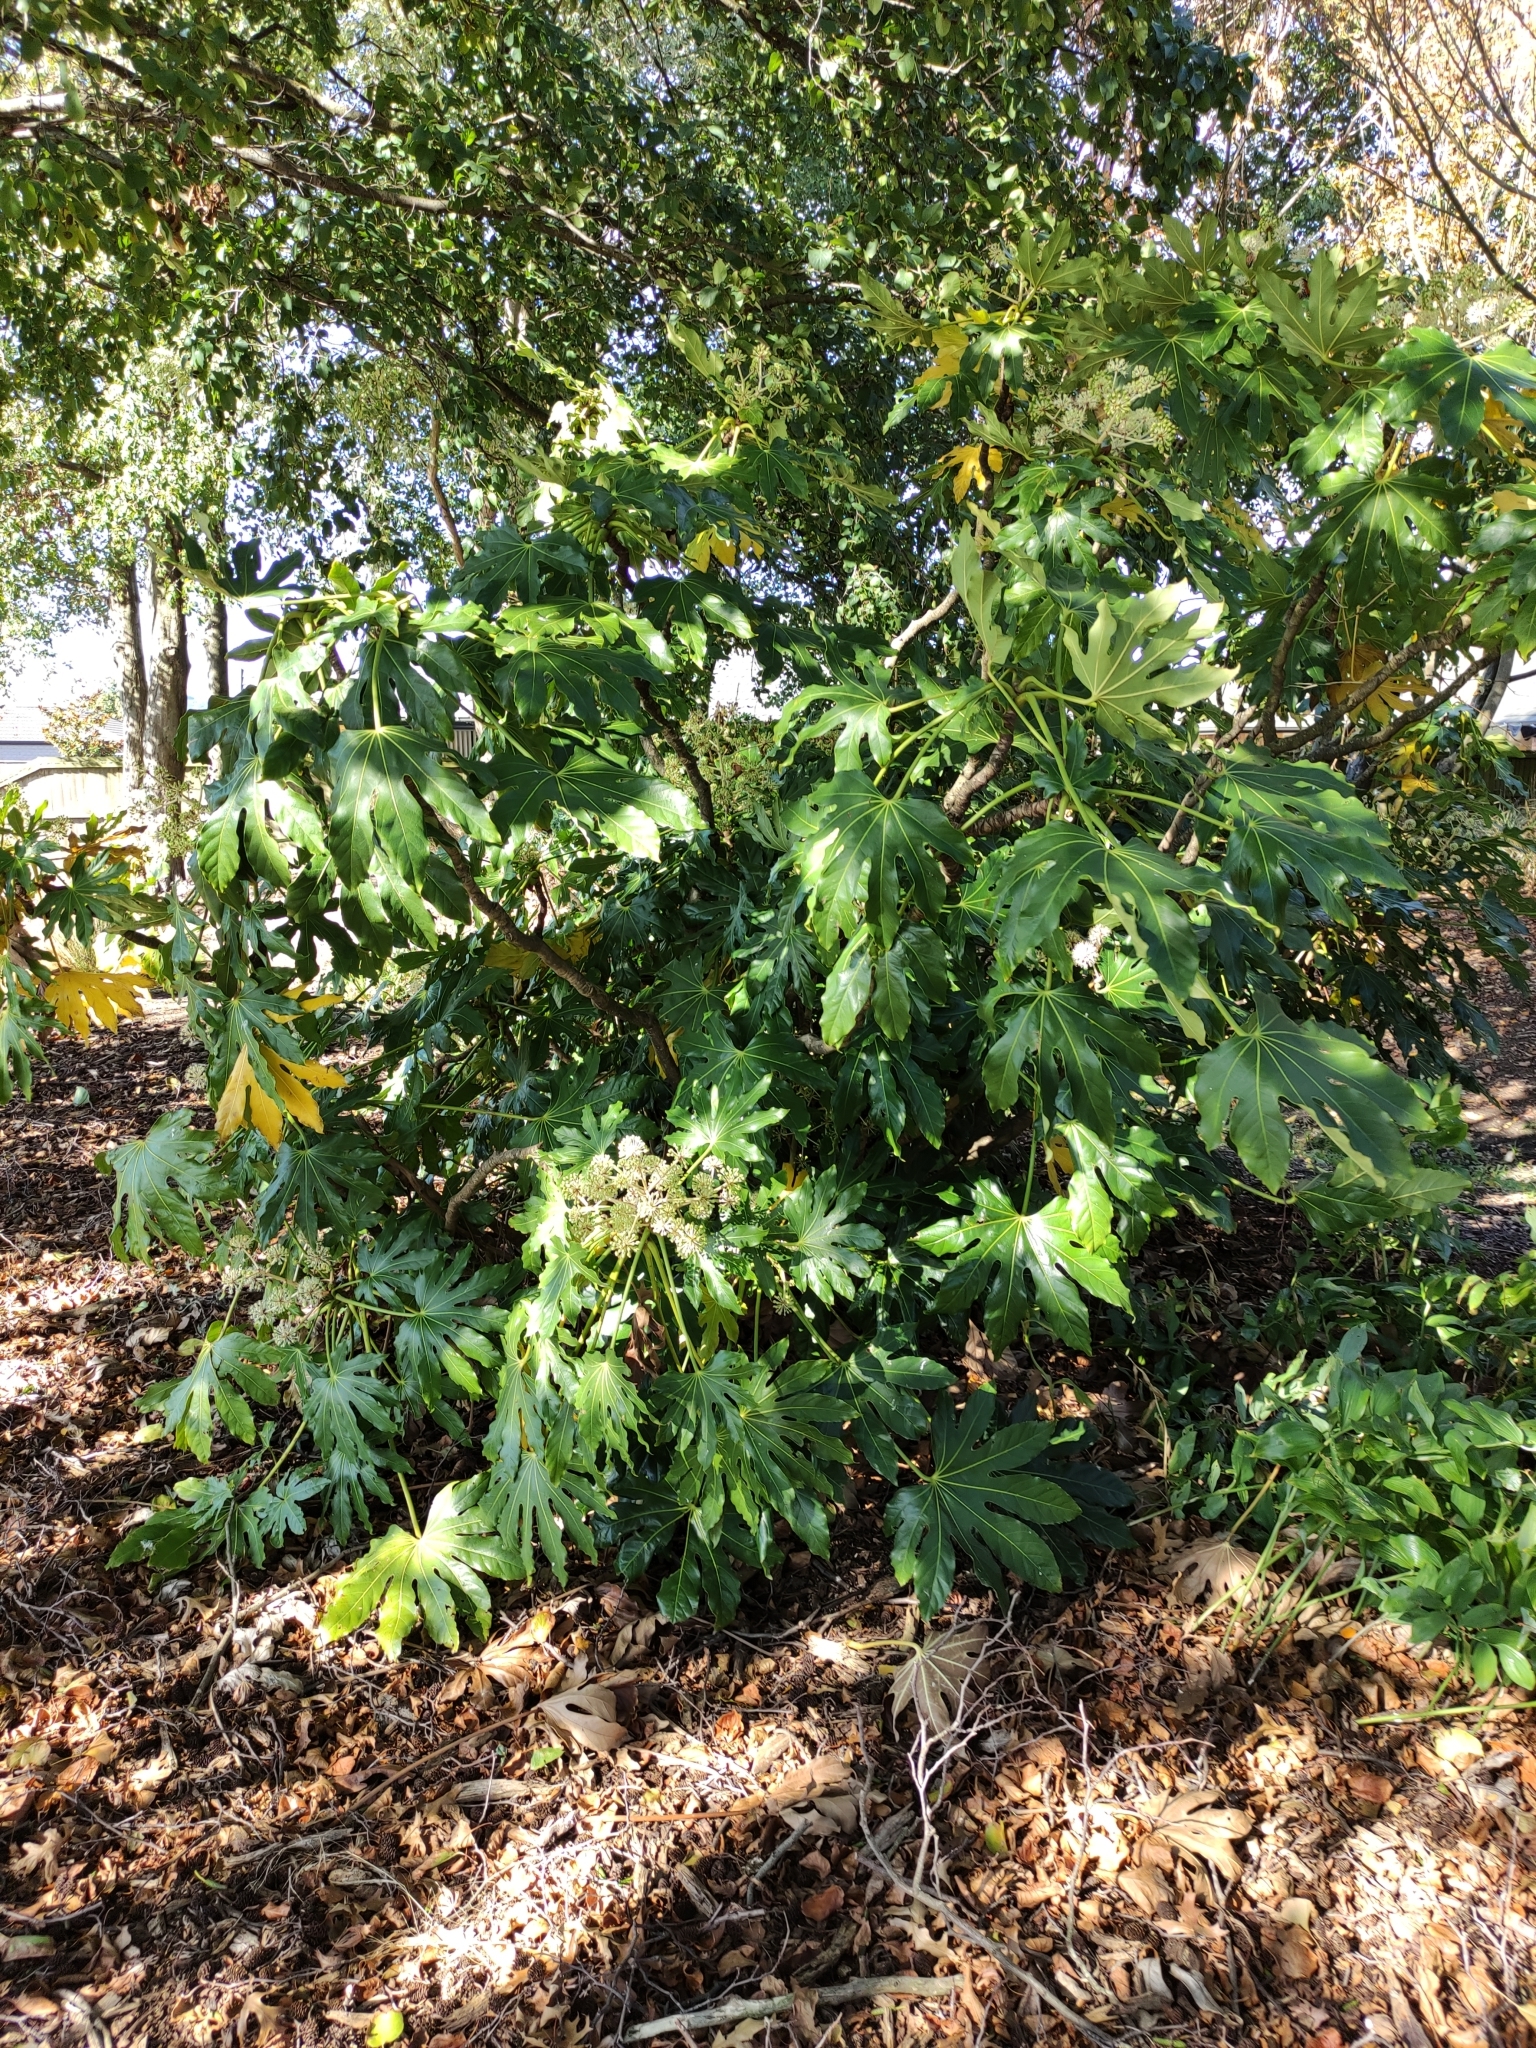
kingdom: Plantae
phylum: Tracheophyta
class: Magnoliopsida
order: Apiales
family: Araliaceae
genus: Fatsia
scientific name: Fatsia japonica
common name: Fatsia
